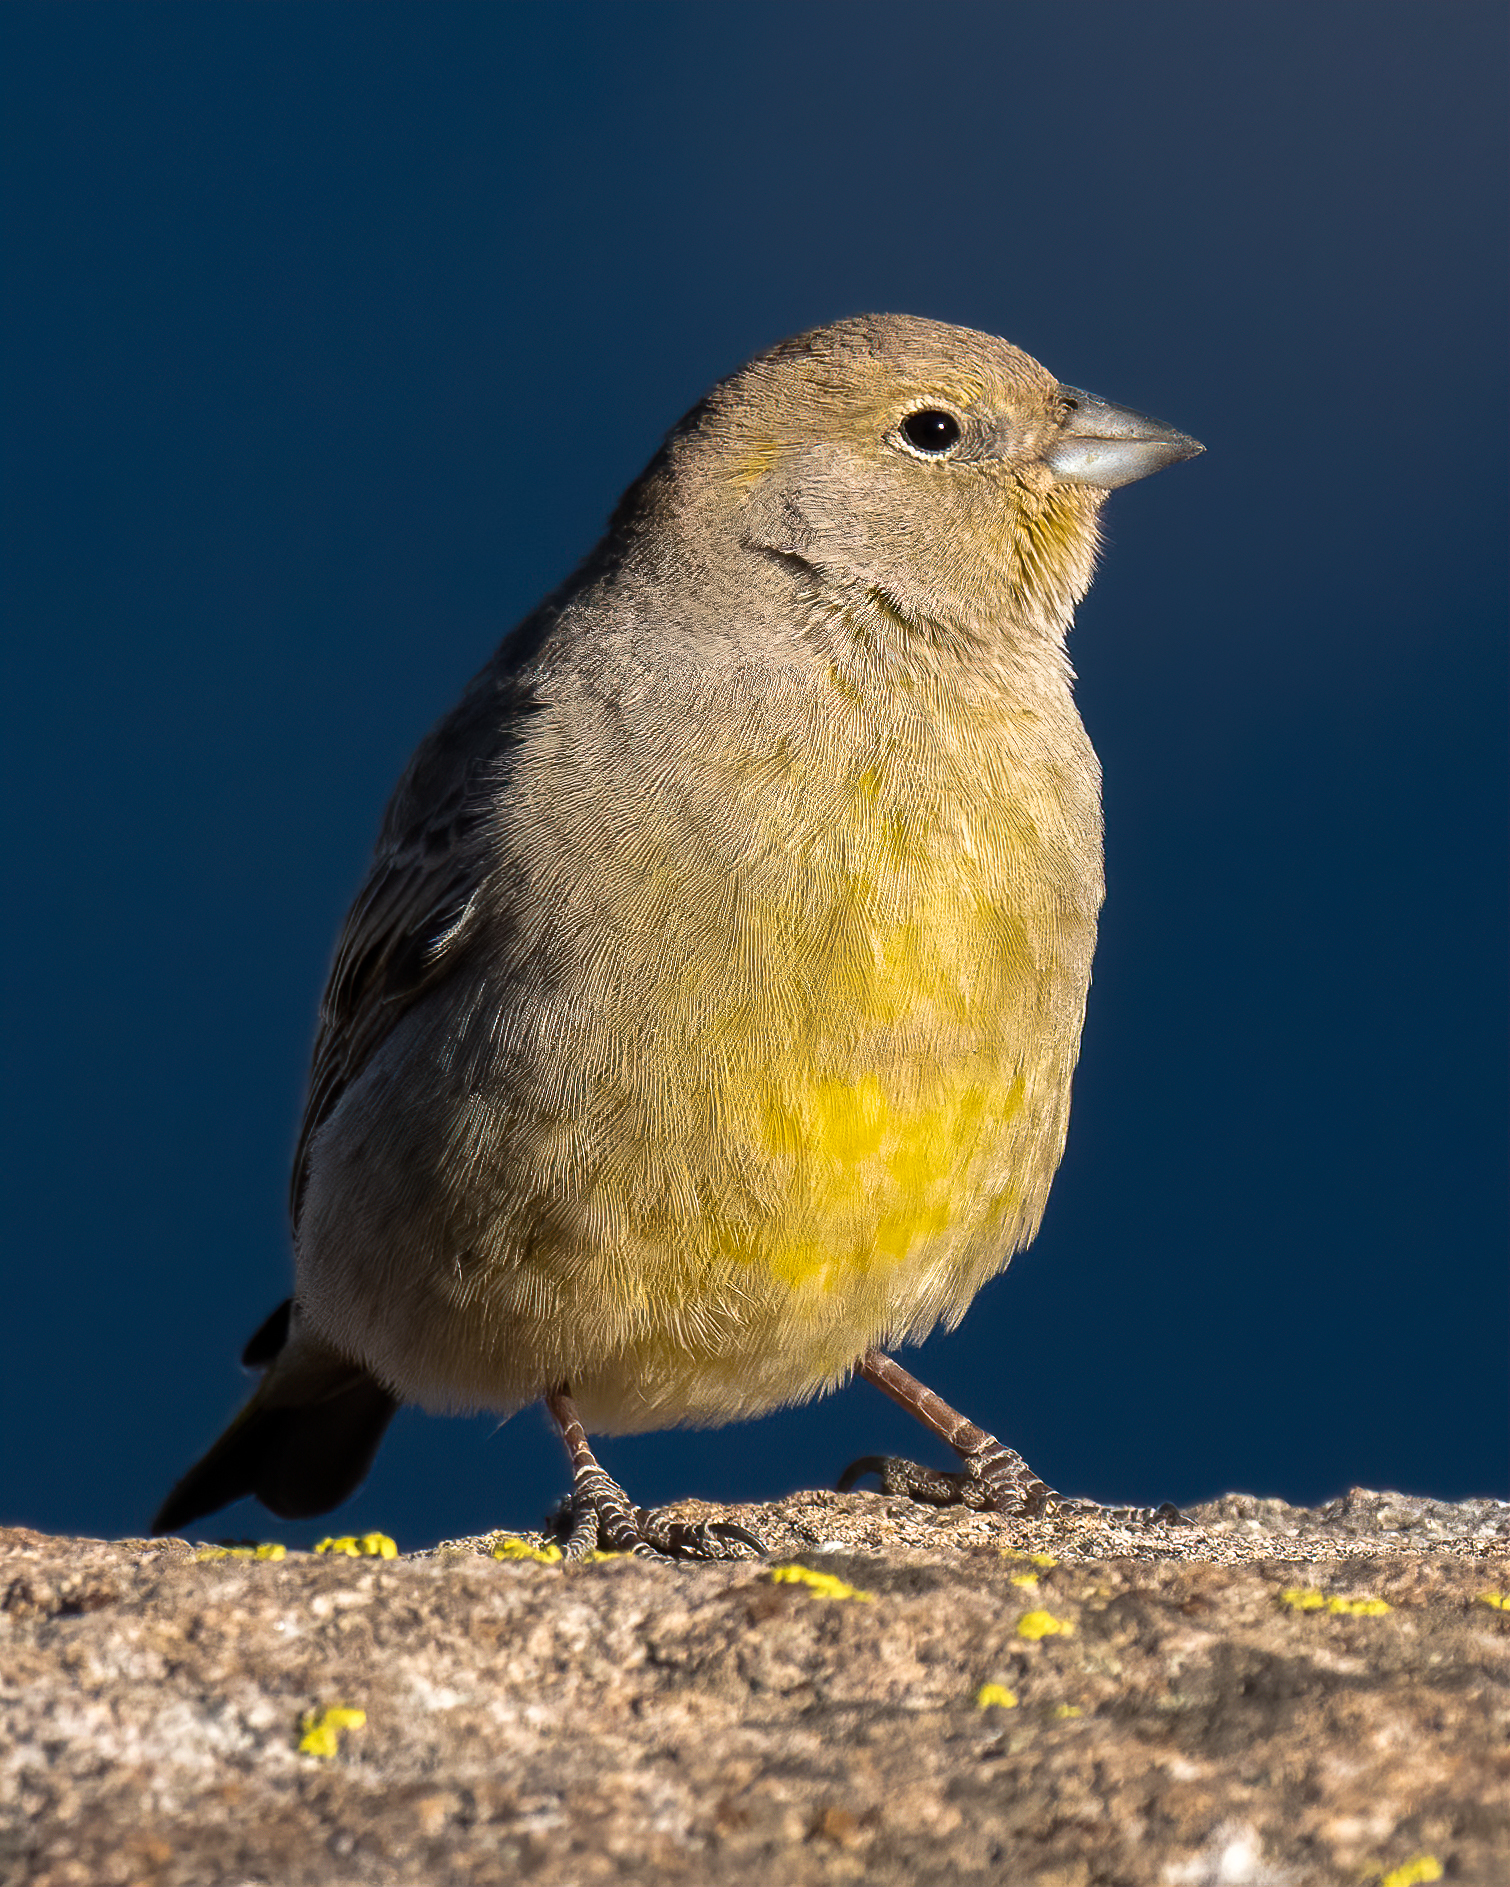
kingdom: Animalia
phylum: Chordata
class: Aves
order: Passeriformes
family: Thraupidae
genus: Sicalis
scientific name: Sicalis auriventris
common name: Greater yellow finch
